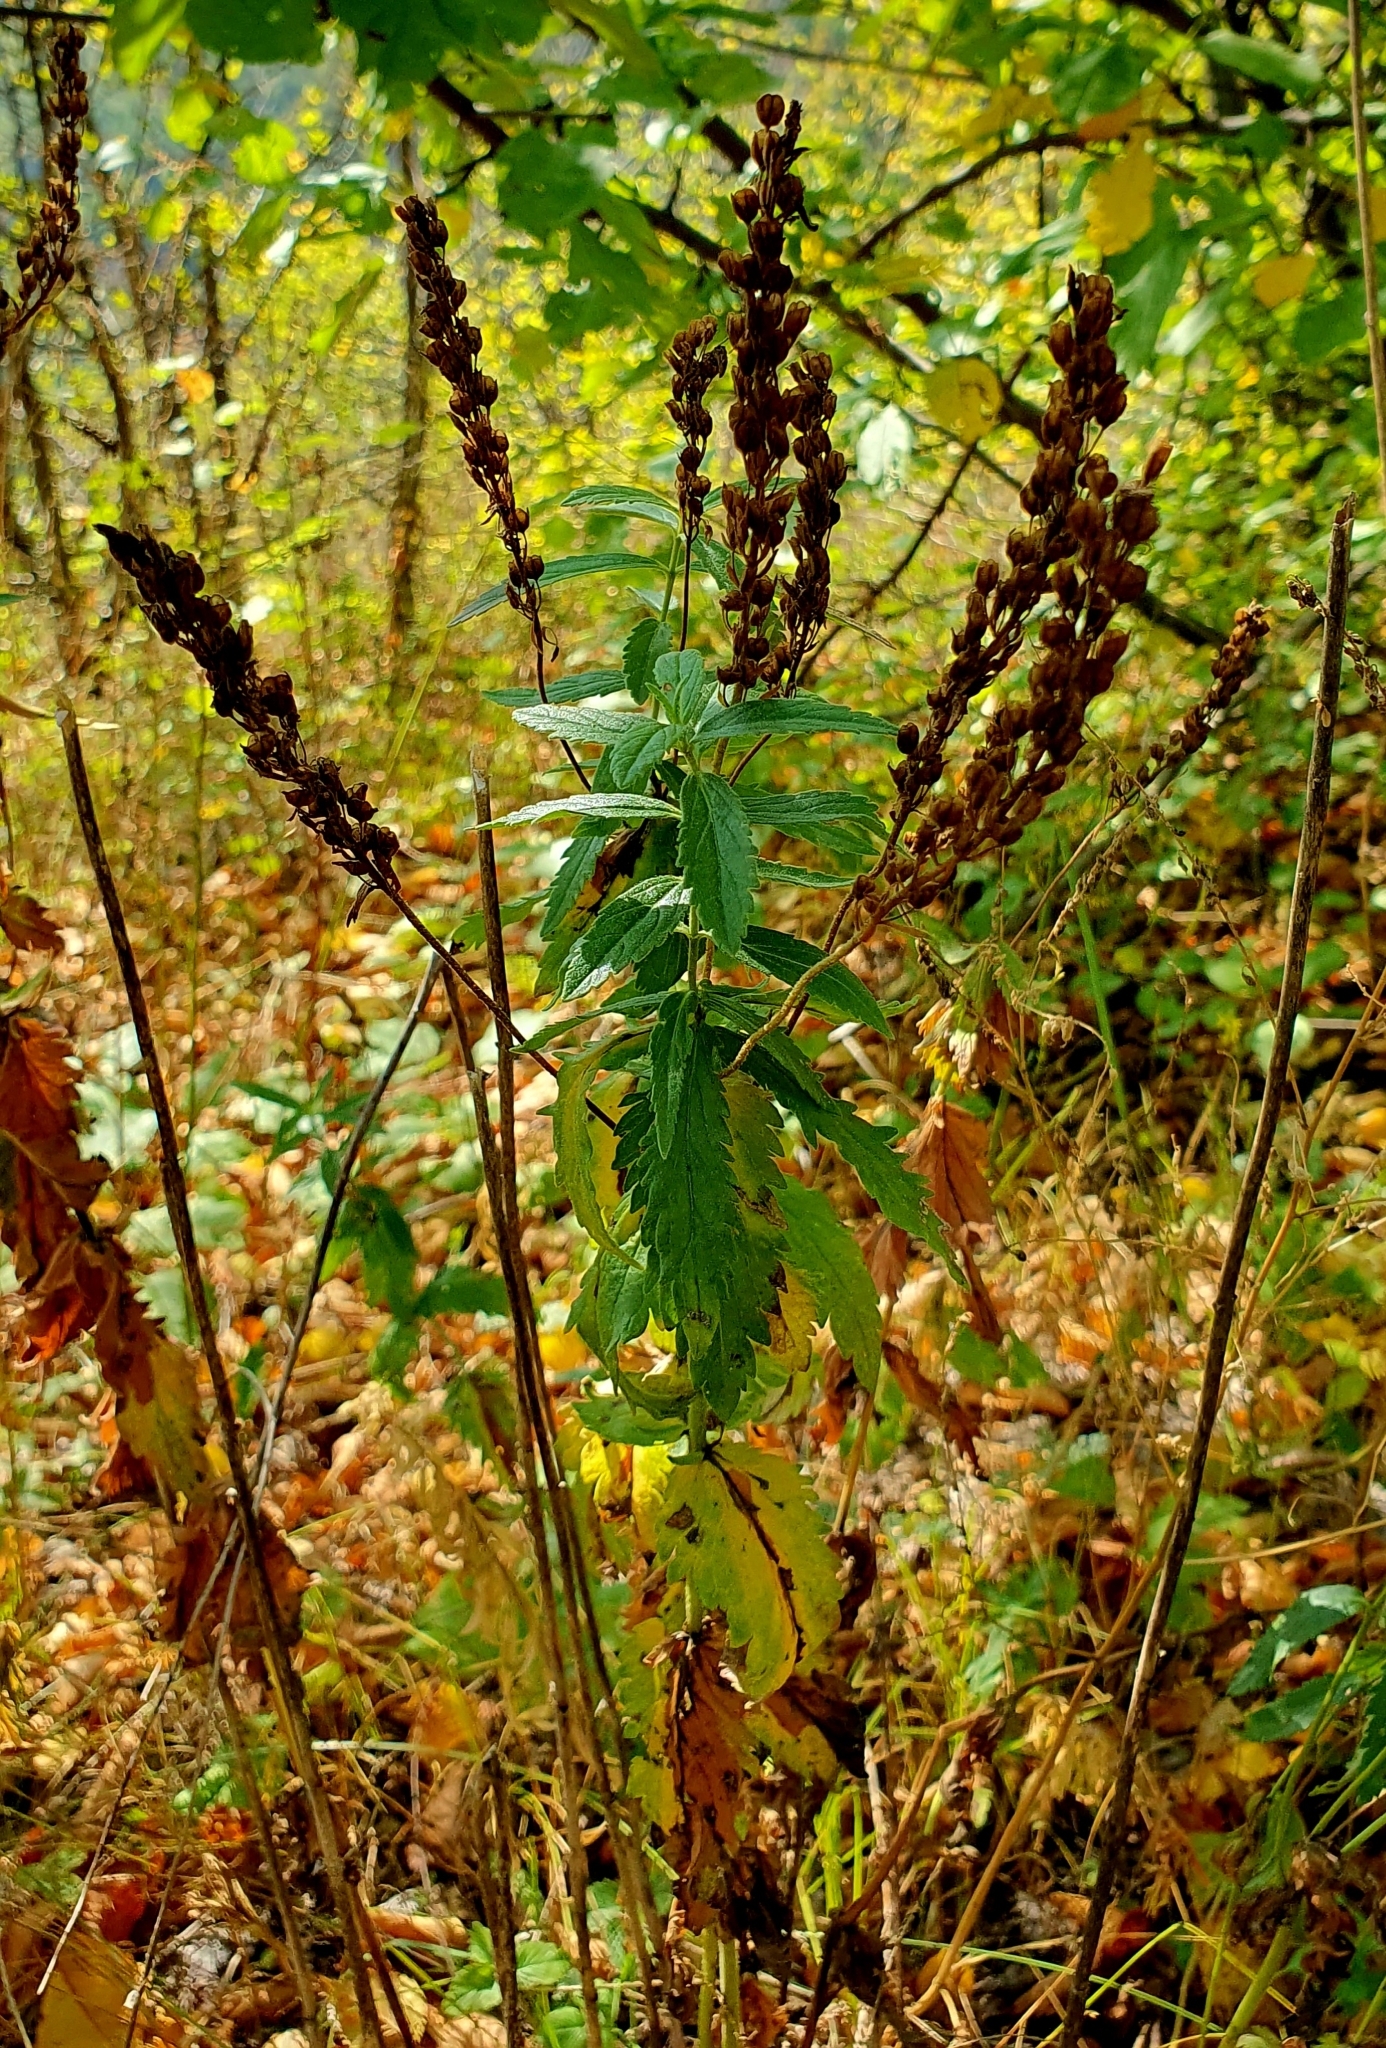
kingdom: Plantae
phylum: Tracheophyta
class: Magnoliopsida
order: Lamiales
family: Plantaginaceae
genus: Veronica
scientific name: Veronica teucrium
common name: Large speedwell
